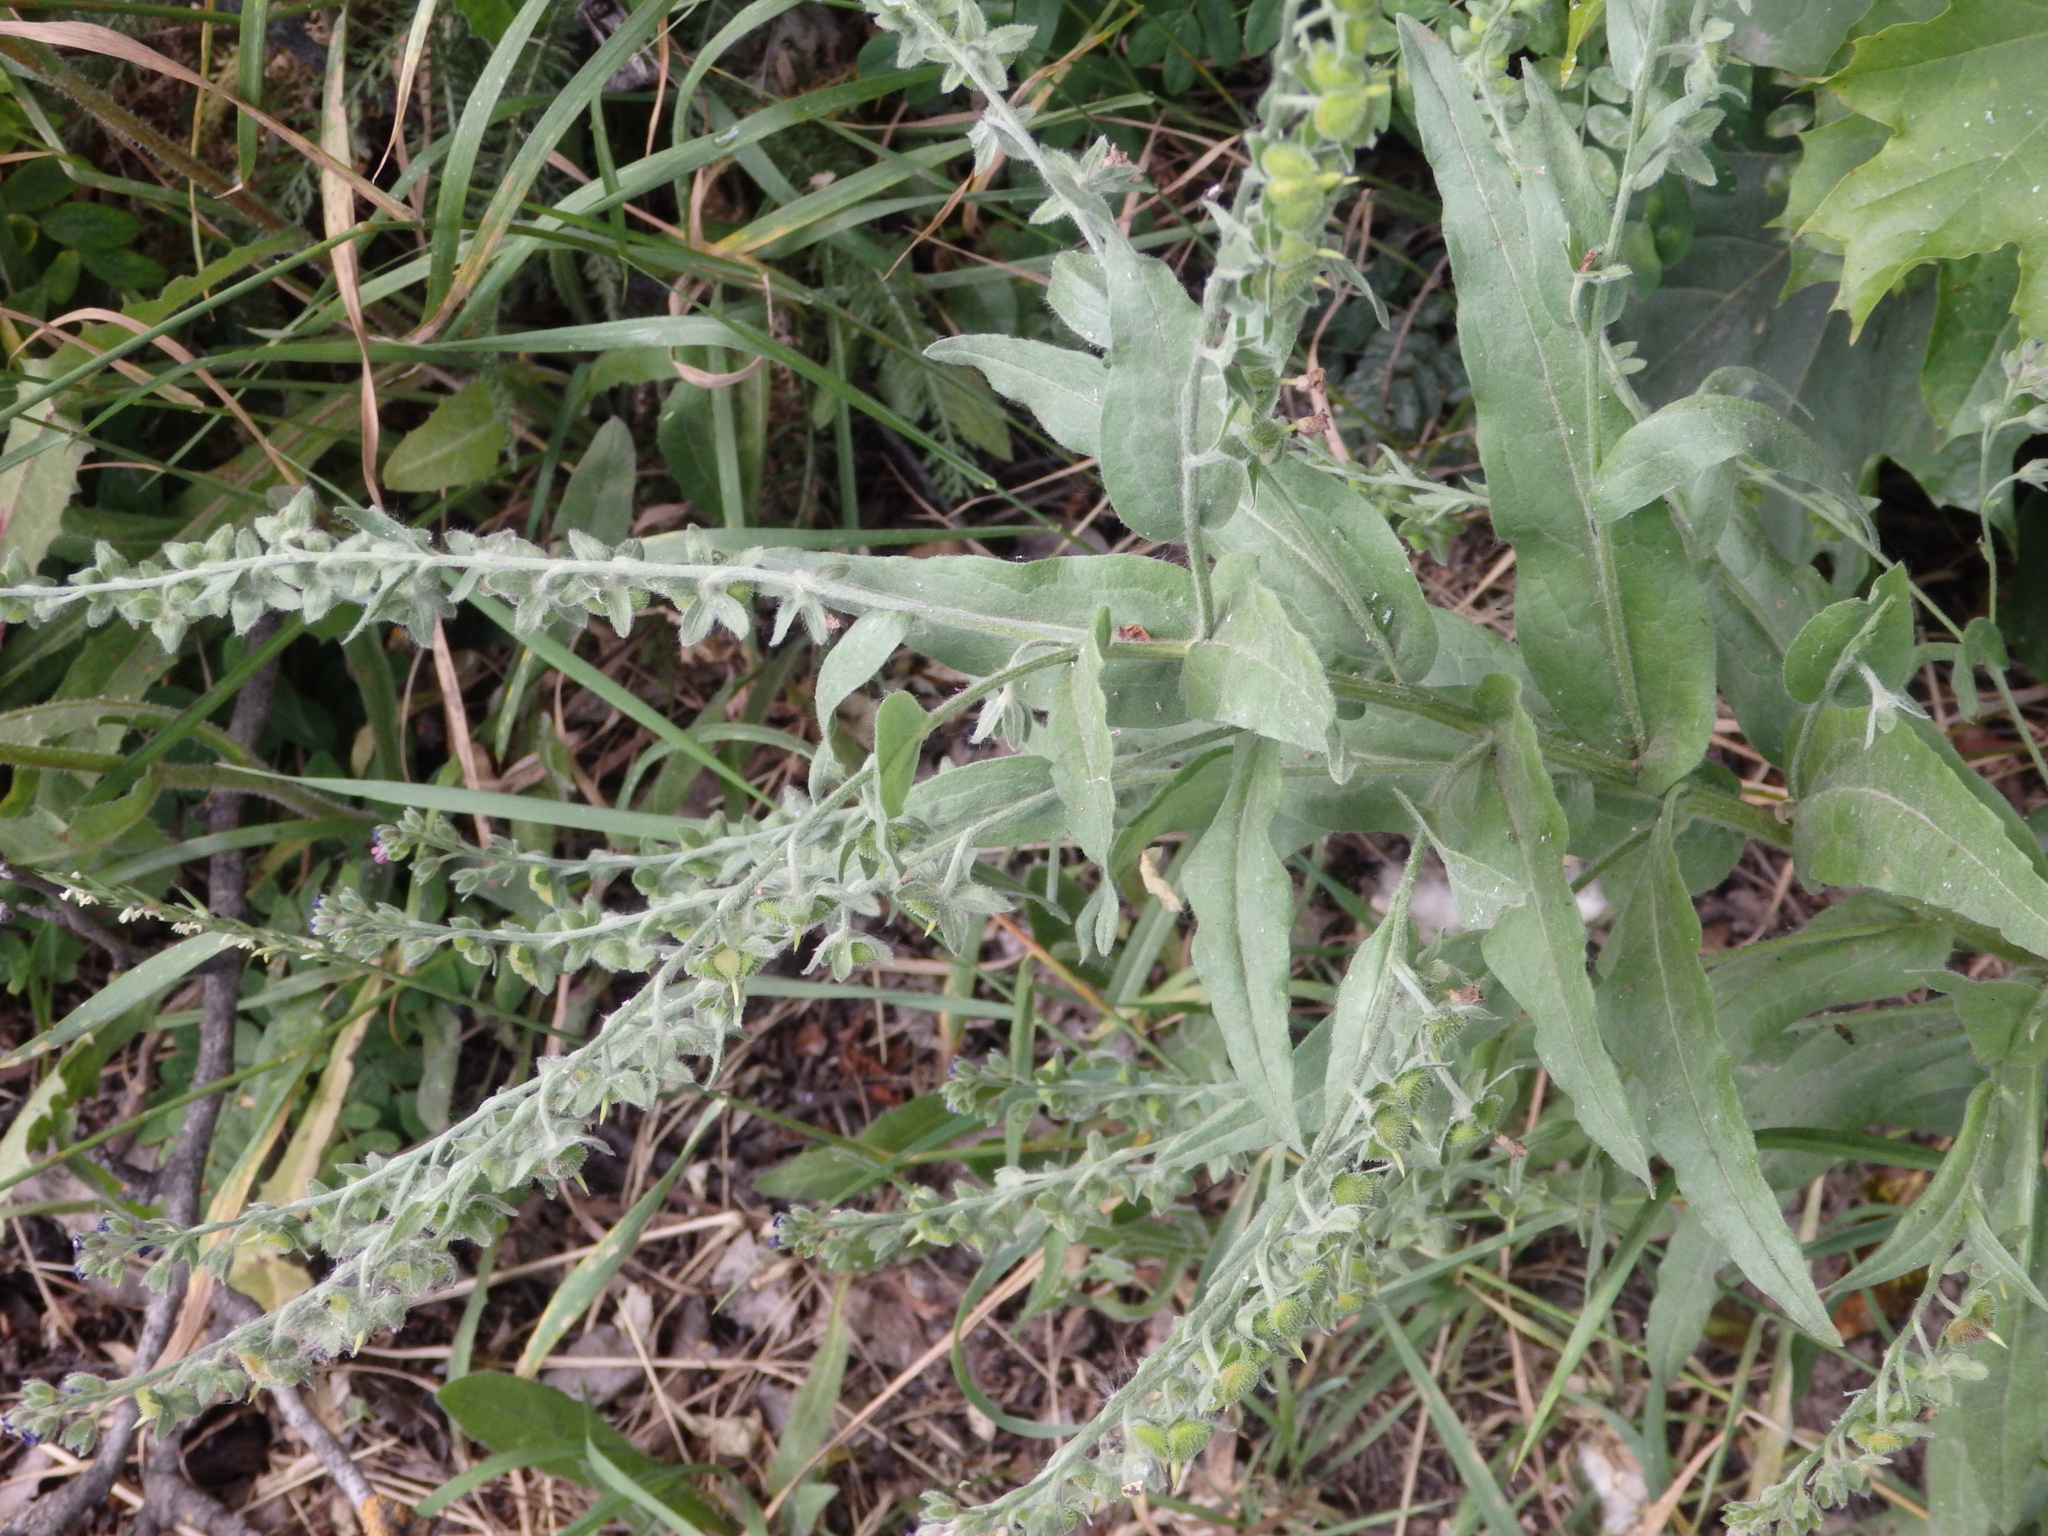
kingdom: Plantae
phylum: Tracheophyta
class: Magnoliopsida
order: Boraginales
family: Boraginaceae
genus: Cynoglossum
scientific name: Cynoglossum officinale
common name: Hound's-tongue
